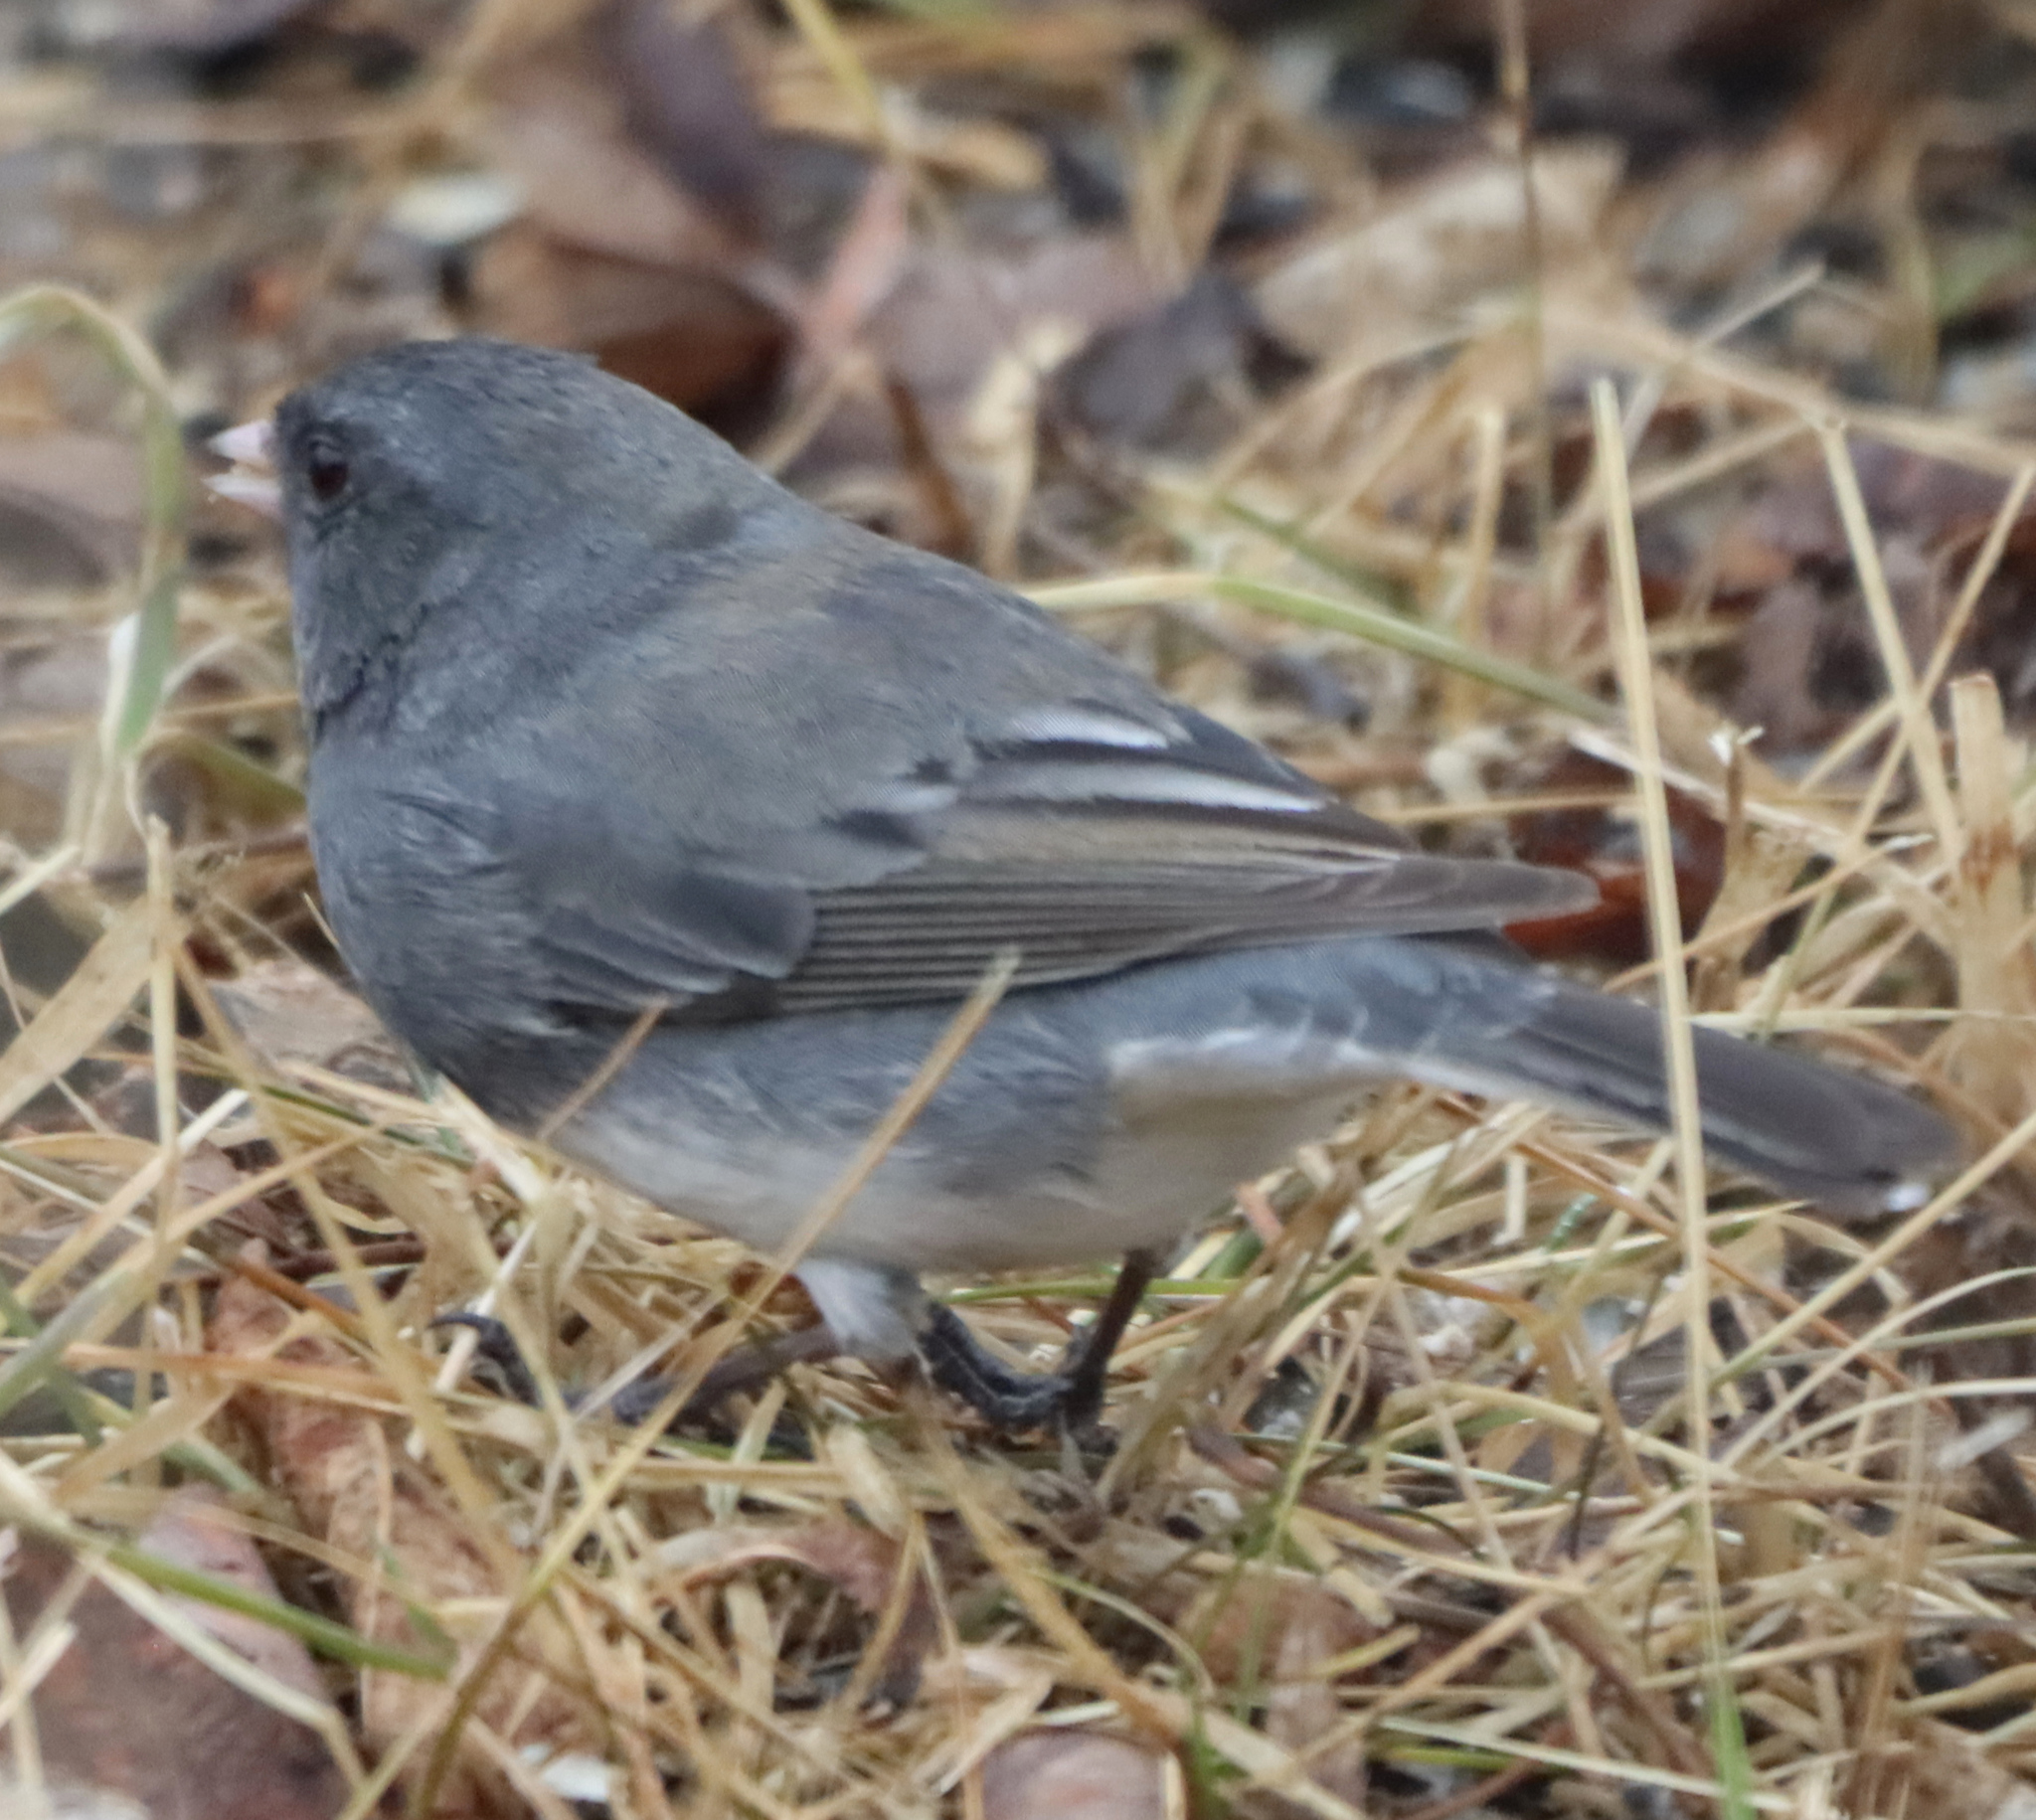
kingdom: Animalia
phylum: Chordata
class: Aves
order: Passeriformes
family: Passerellidae
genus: Junco
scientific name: Junco hyemalis
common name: Dark-eyed junco
